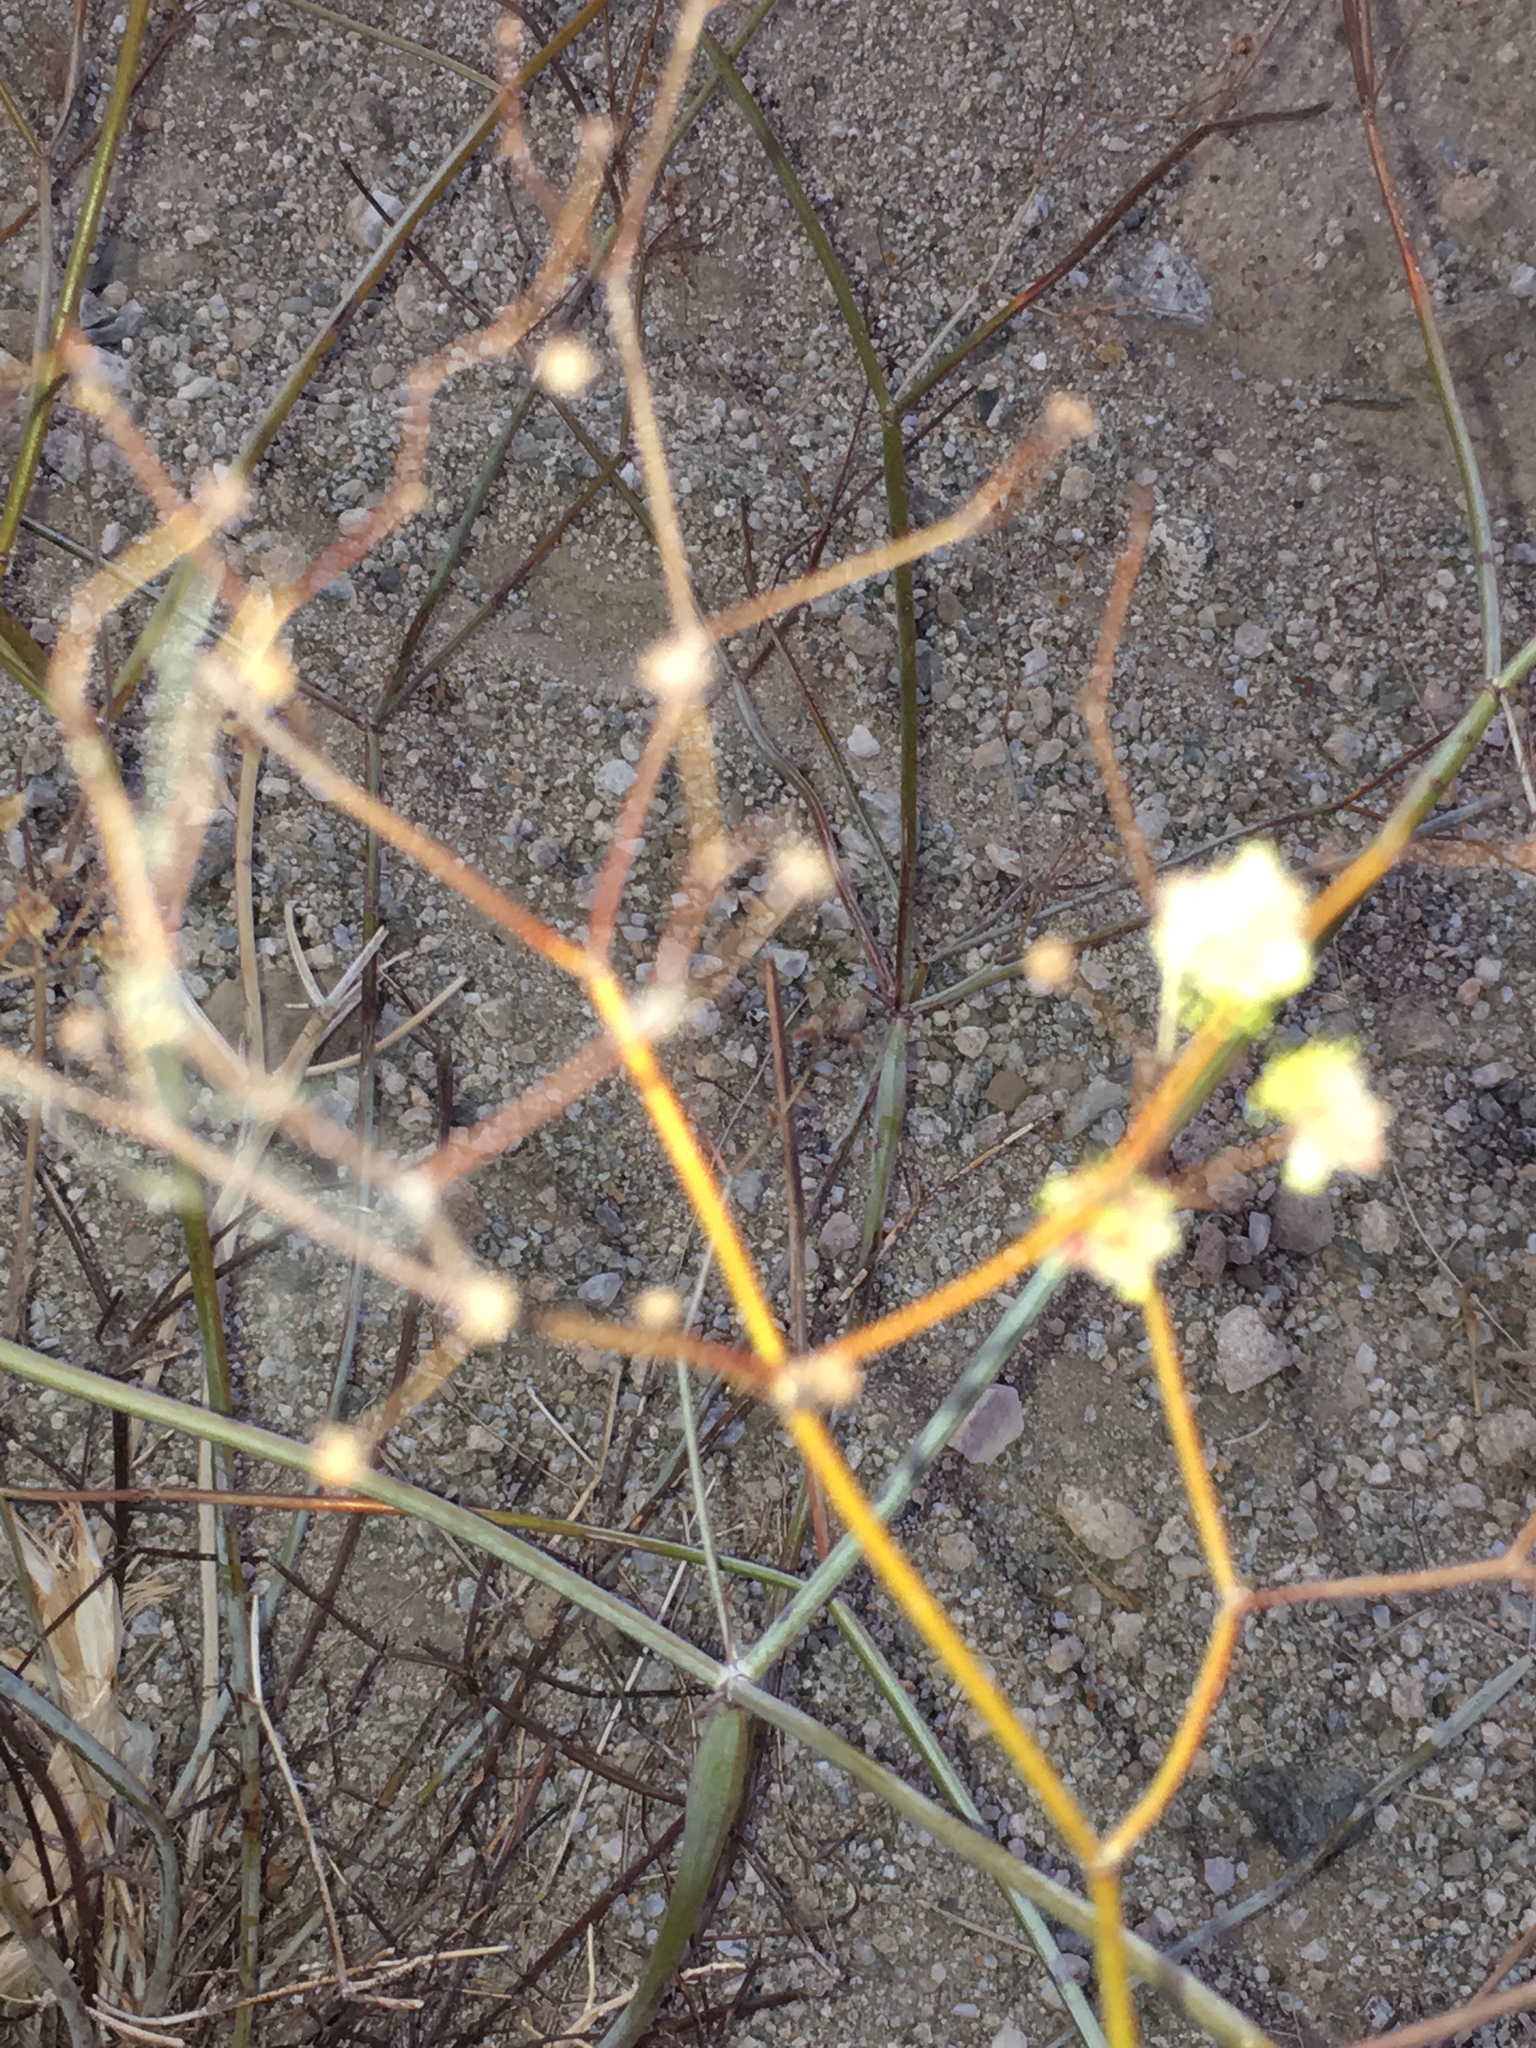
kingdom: Plantae
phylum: Tracheophyta
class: Magnoliopsida
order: Caryophyllales
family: Polygonaceae
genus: Eriogonum
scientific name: Eriogonum inflatum
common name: Desert trumpet
